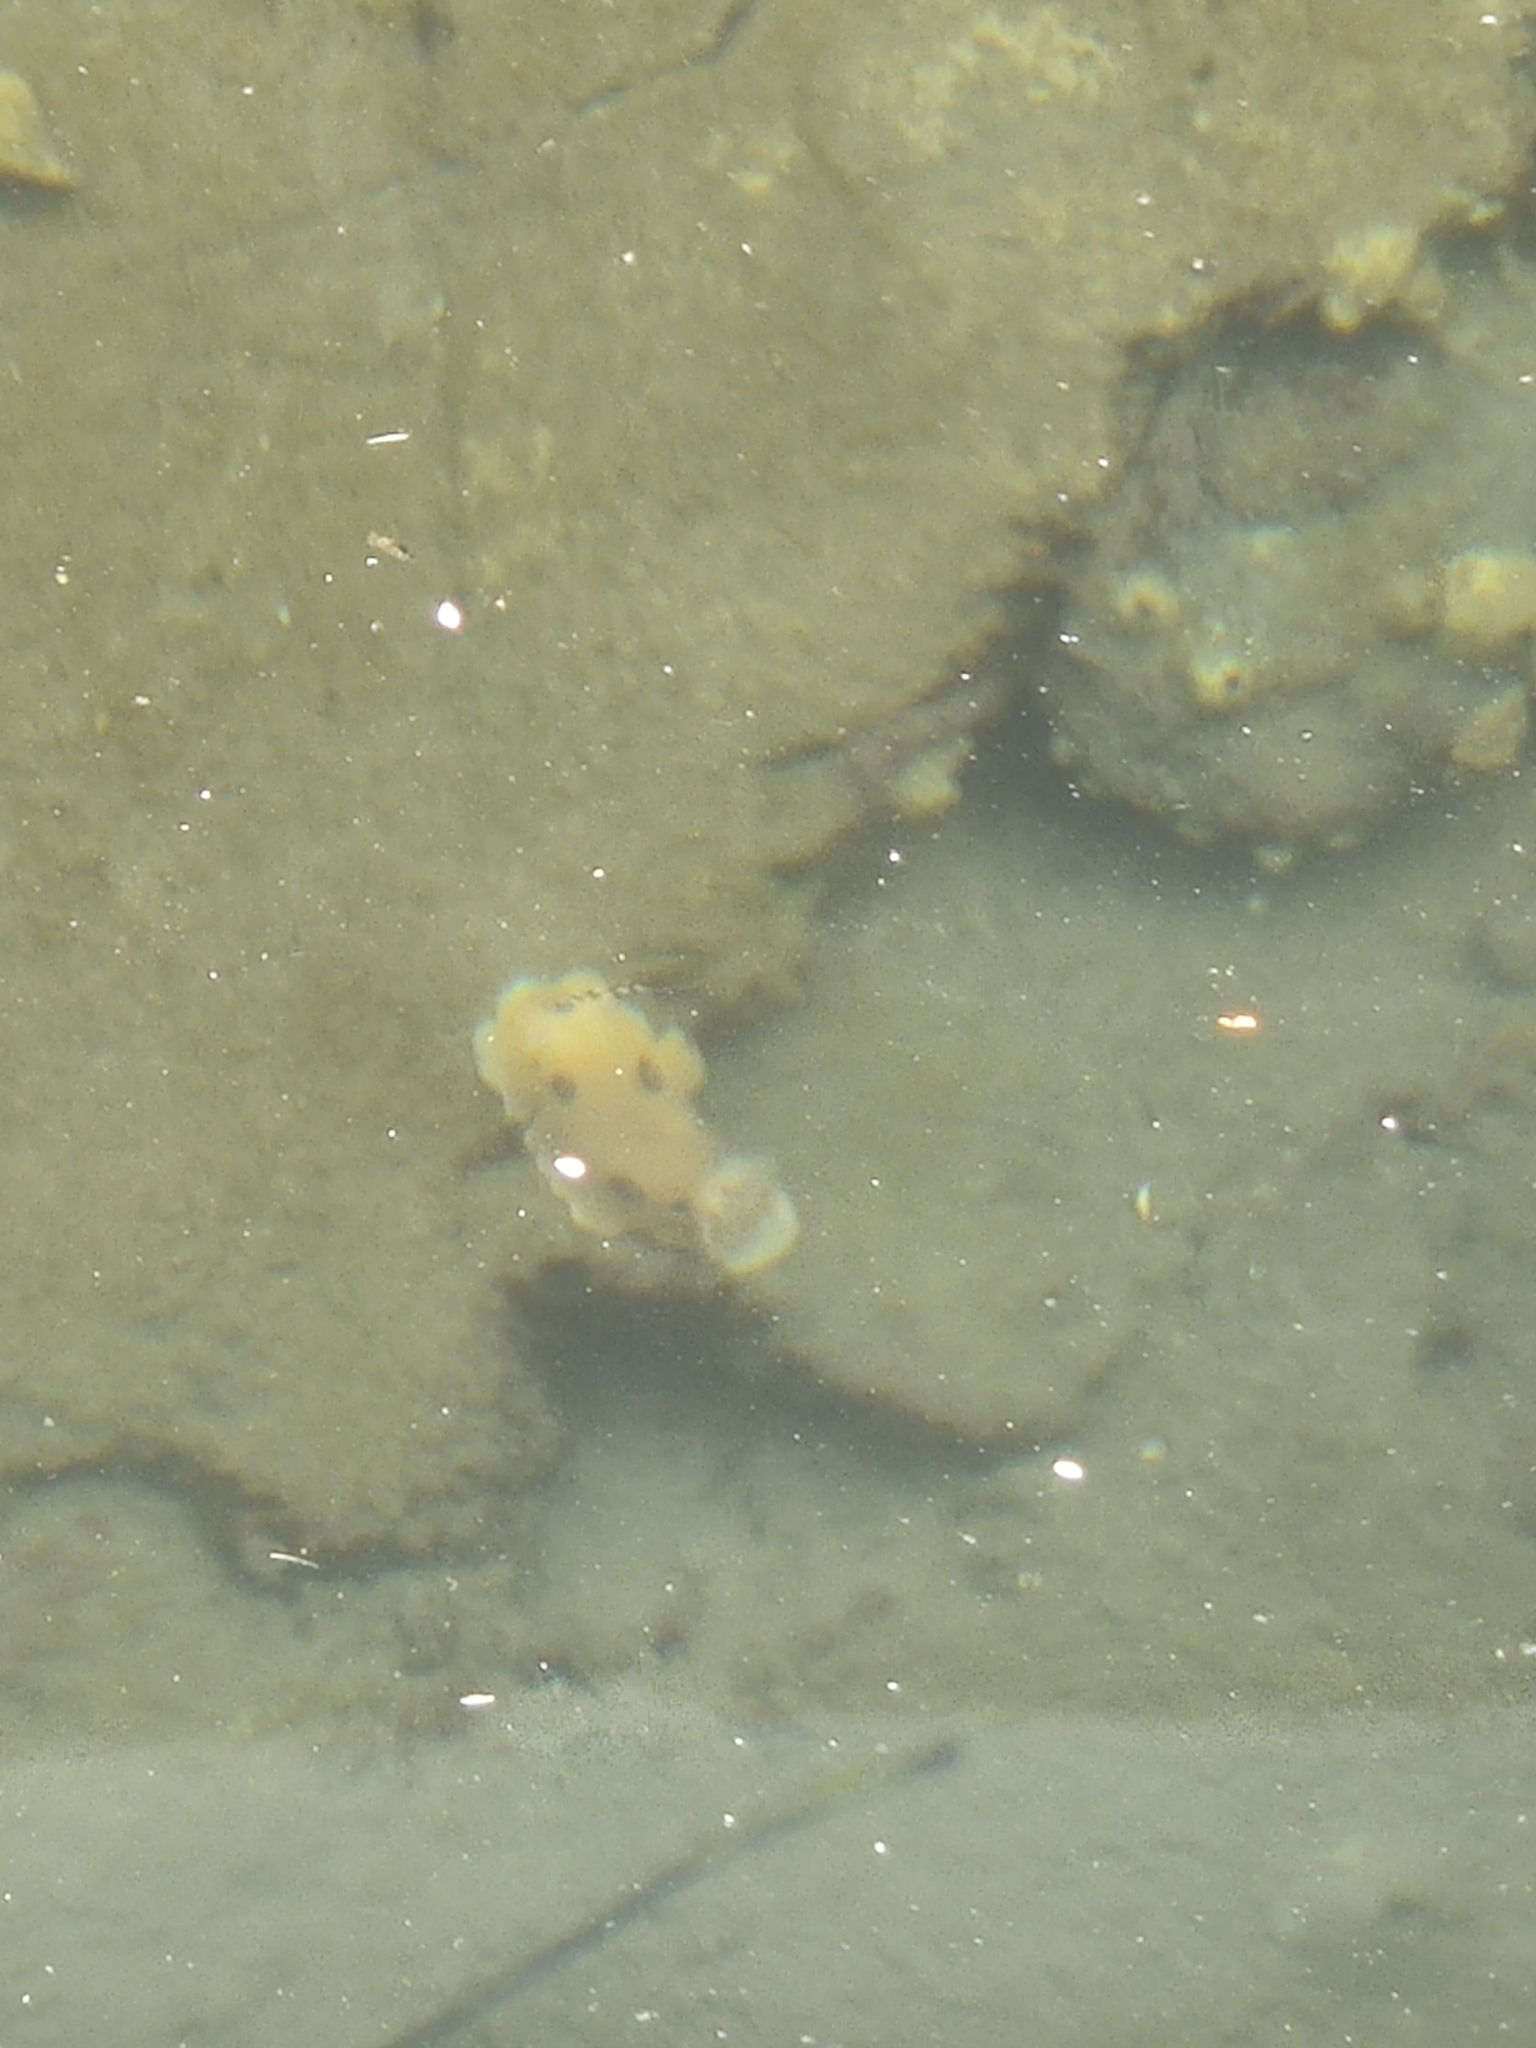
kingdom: Animalia
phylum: Mollusca
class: Gastropoda
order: Nudibranchia
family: Discodorididae
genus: Diaulula
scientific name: Diaulula sandiegensis
